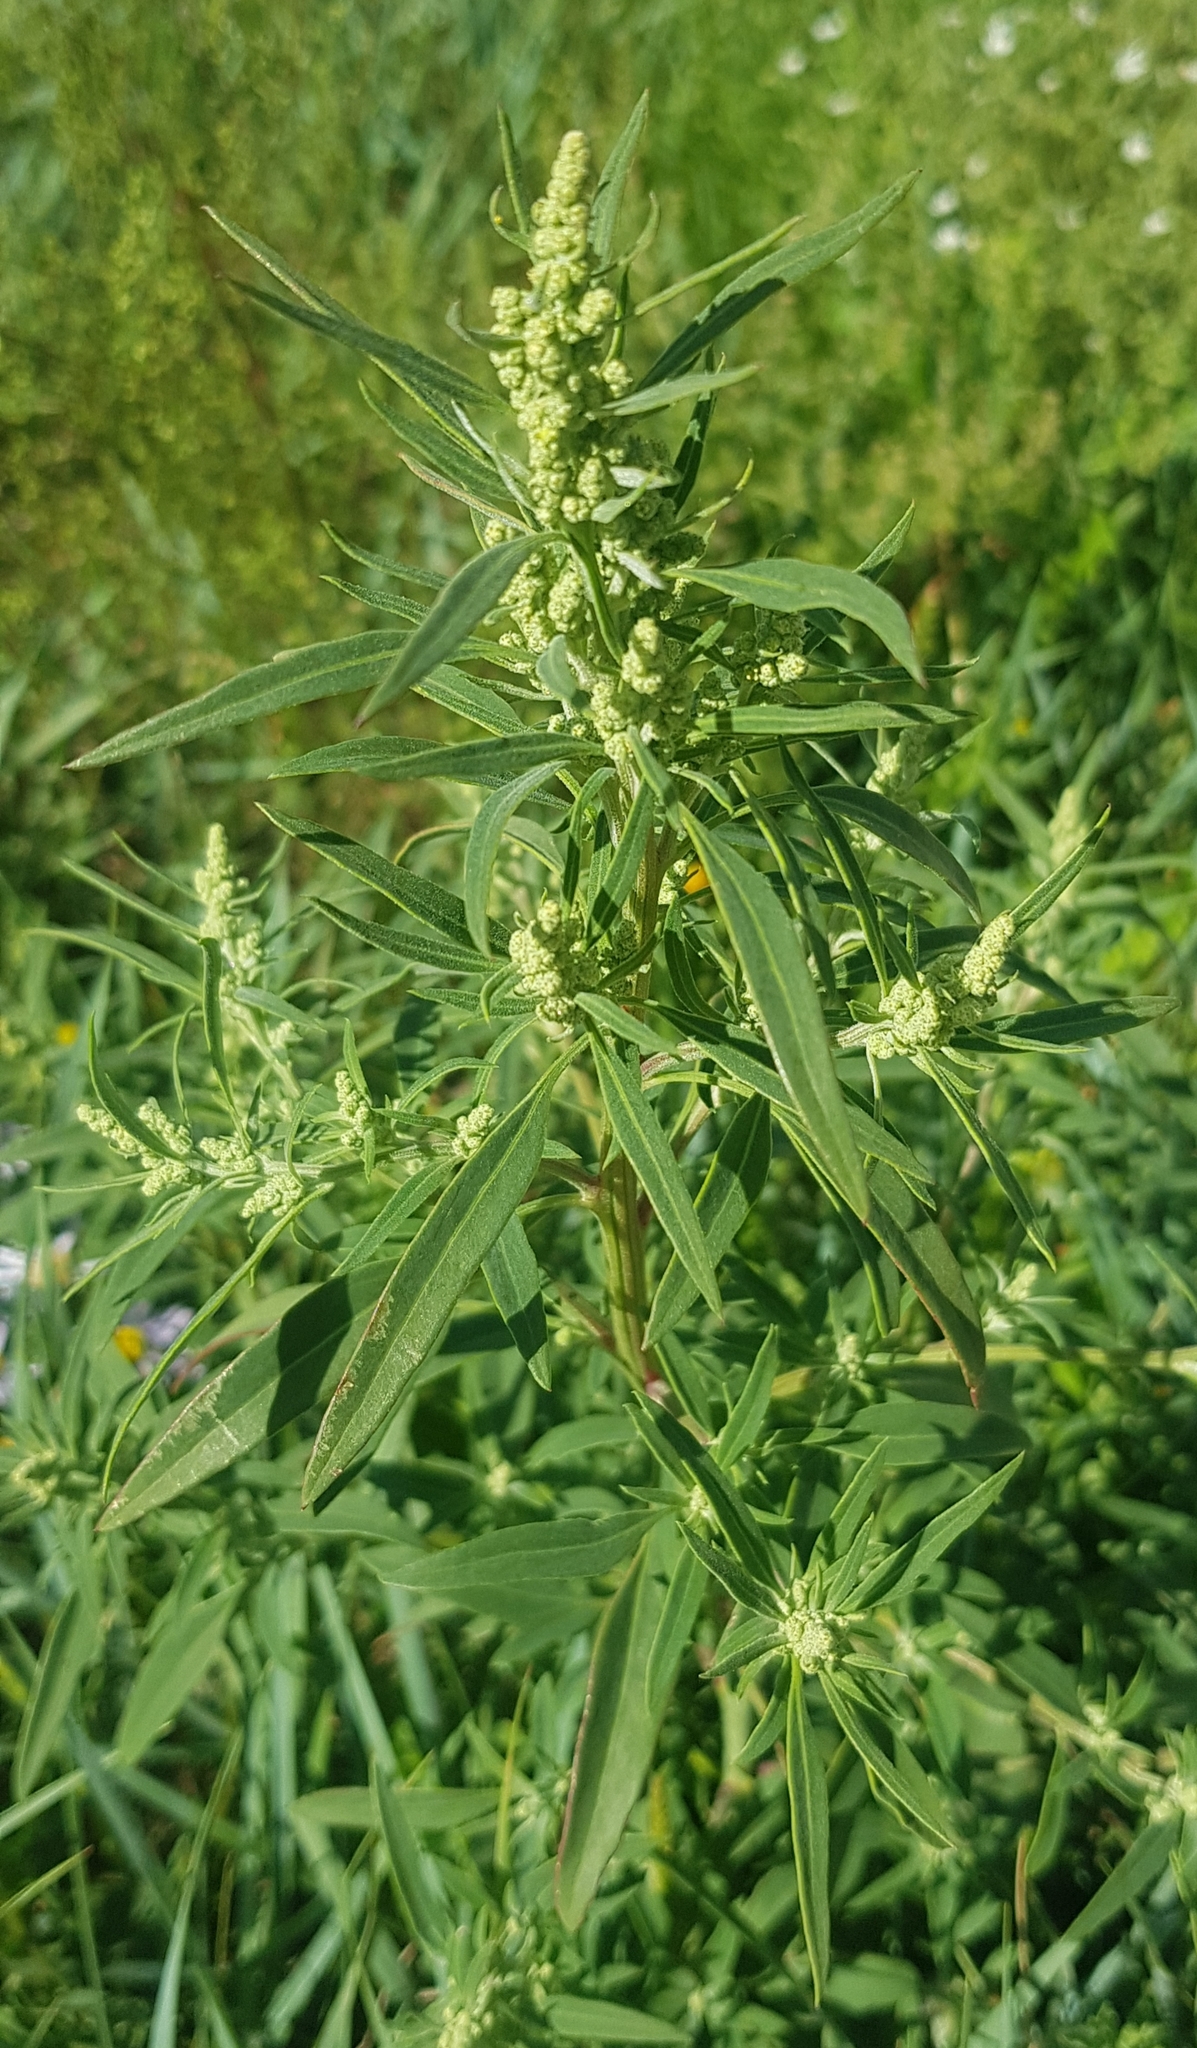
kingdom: Plantae
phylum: Tracheophyta
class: Magnoliopsida
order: Caryophyllales
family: Amaranthaceae
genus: Chenopodium
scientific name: Chenopodium album
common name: Fat-hen
